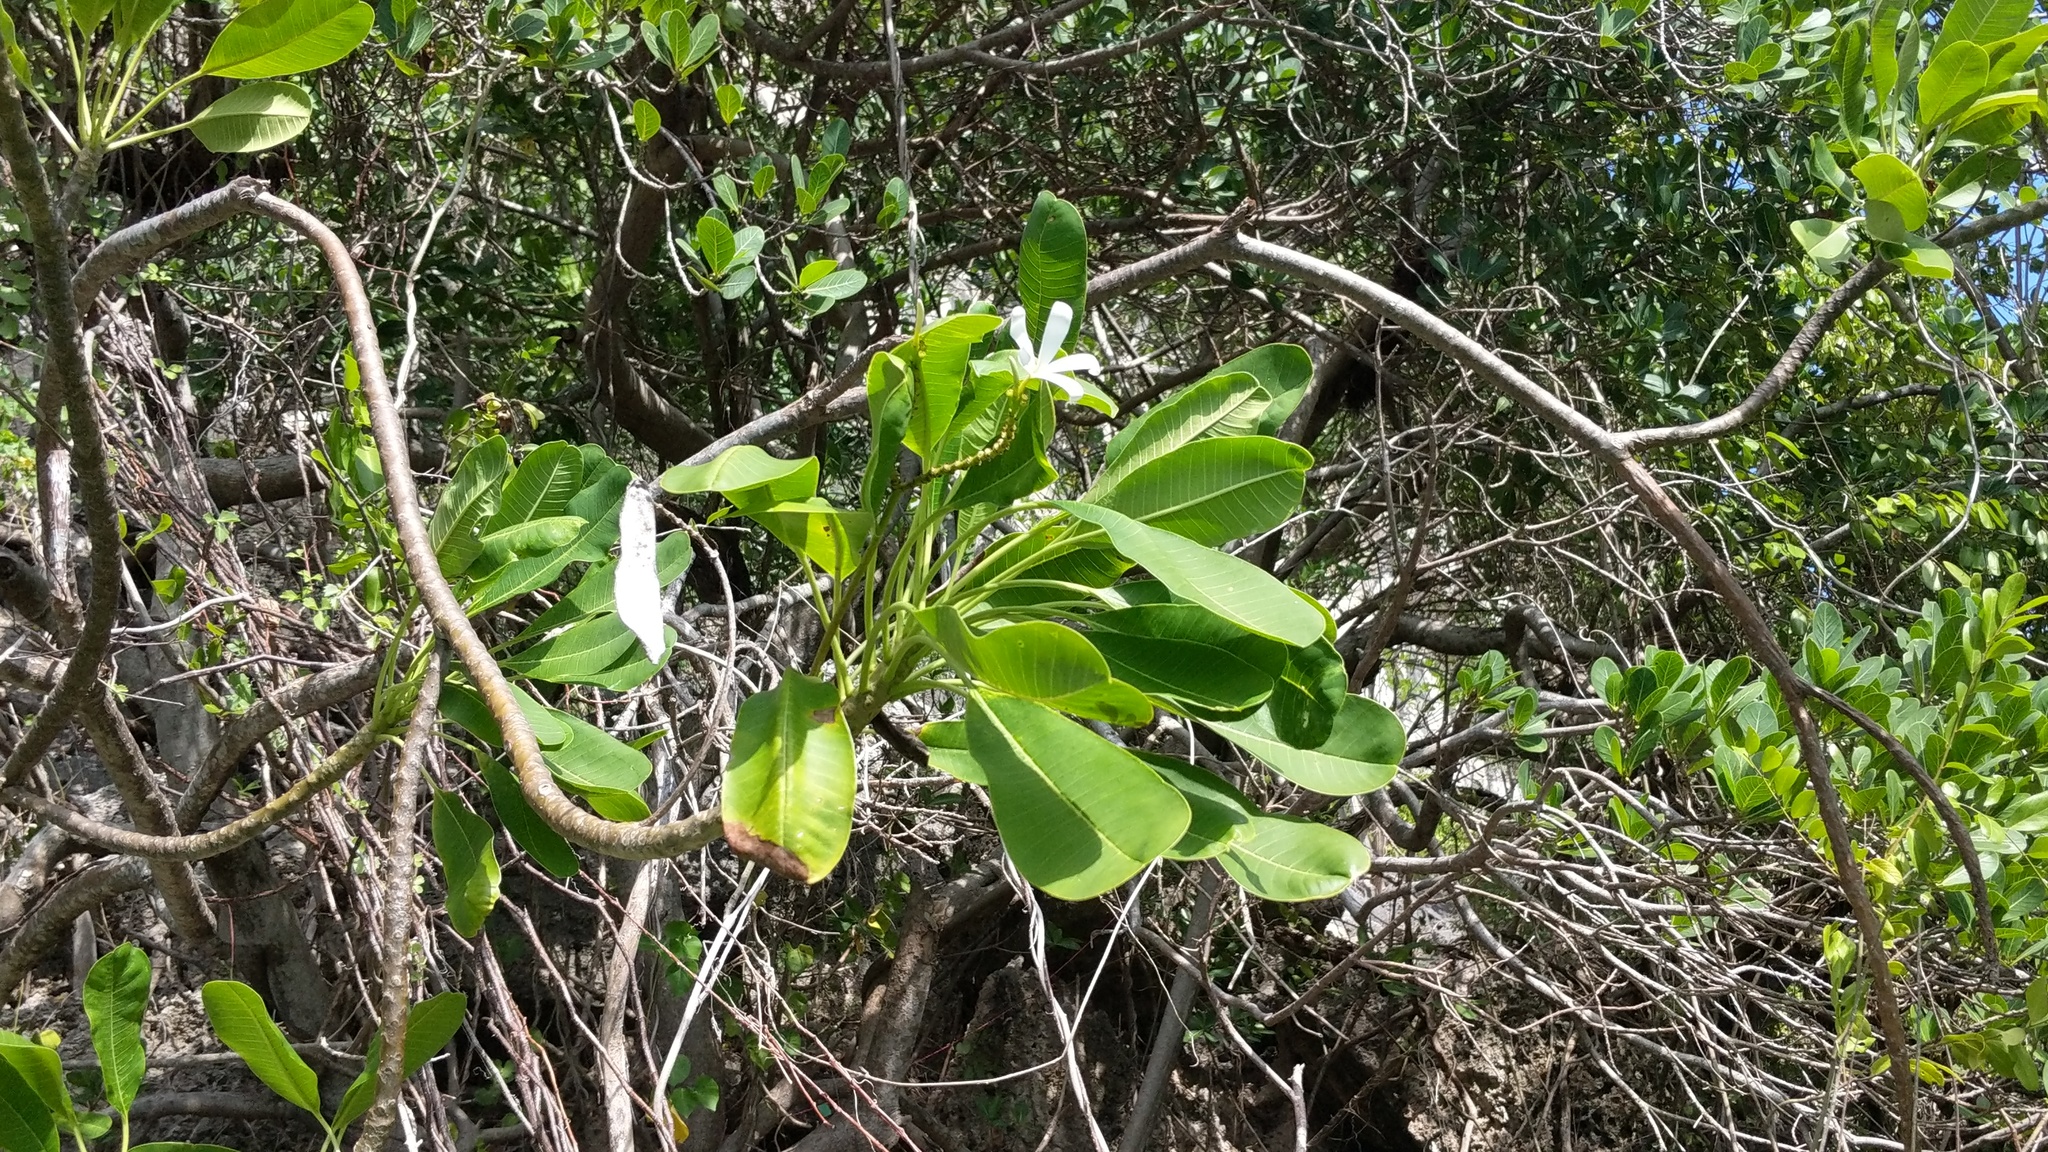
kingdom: Plantae
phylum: Tracheophyta
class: Magnoliopsida
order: Gentianales
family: Apocynaceae
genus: Plumeria
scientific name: Plumeria obtusa
